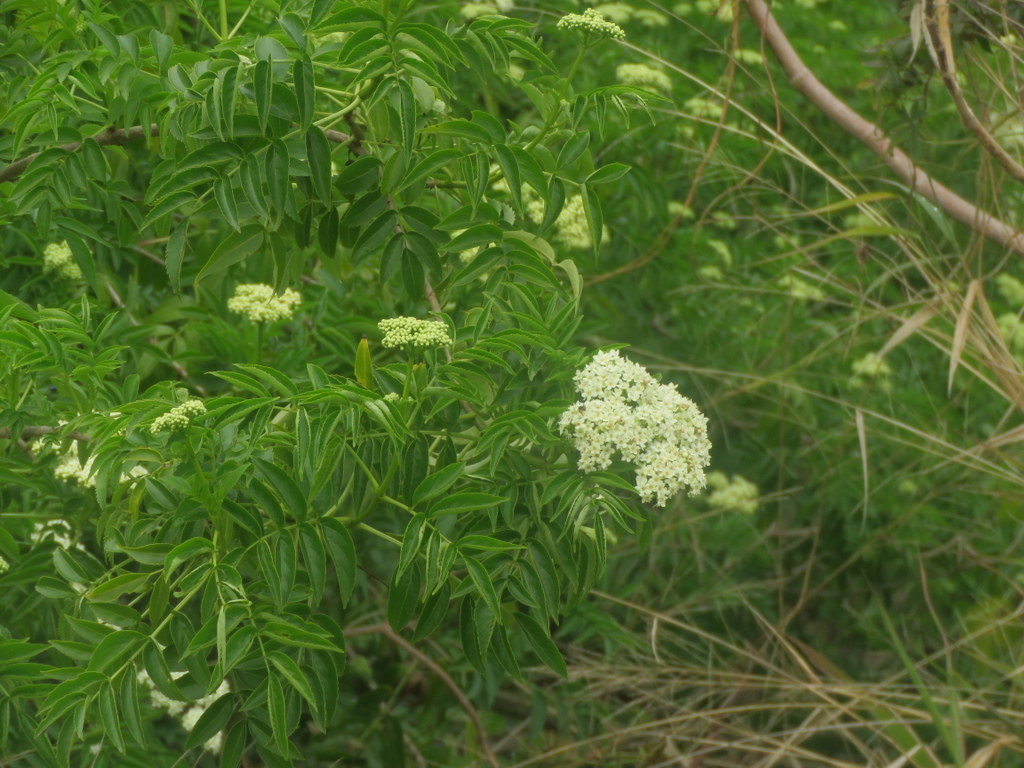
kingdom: Plantae
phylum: Tracheophyta
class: Magnoliopsida
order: Dipsacales
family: Viburnaceae
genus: Sambucus
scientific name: Sambucus australis
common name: Southern elder
